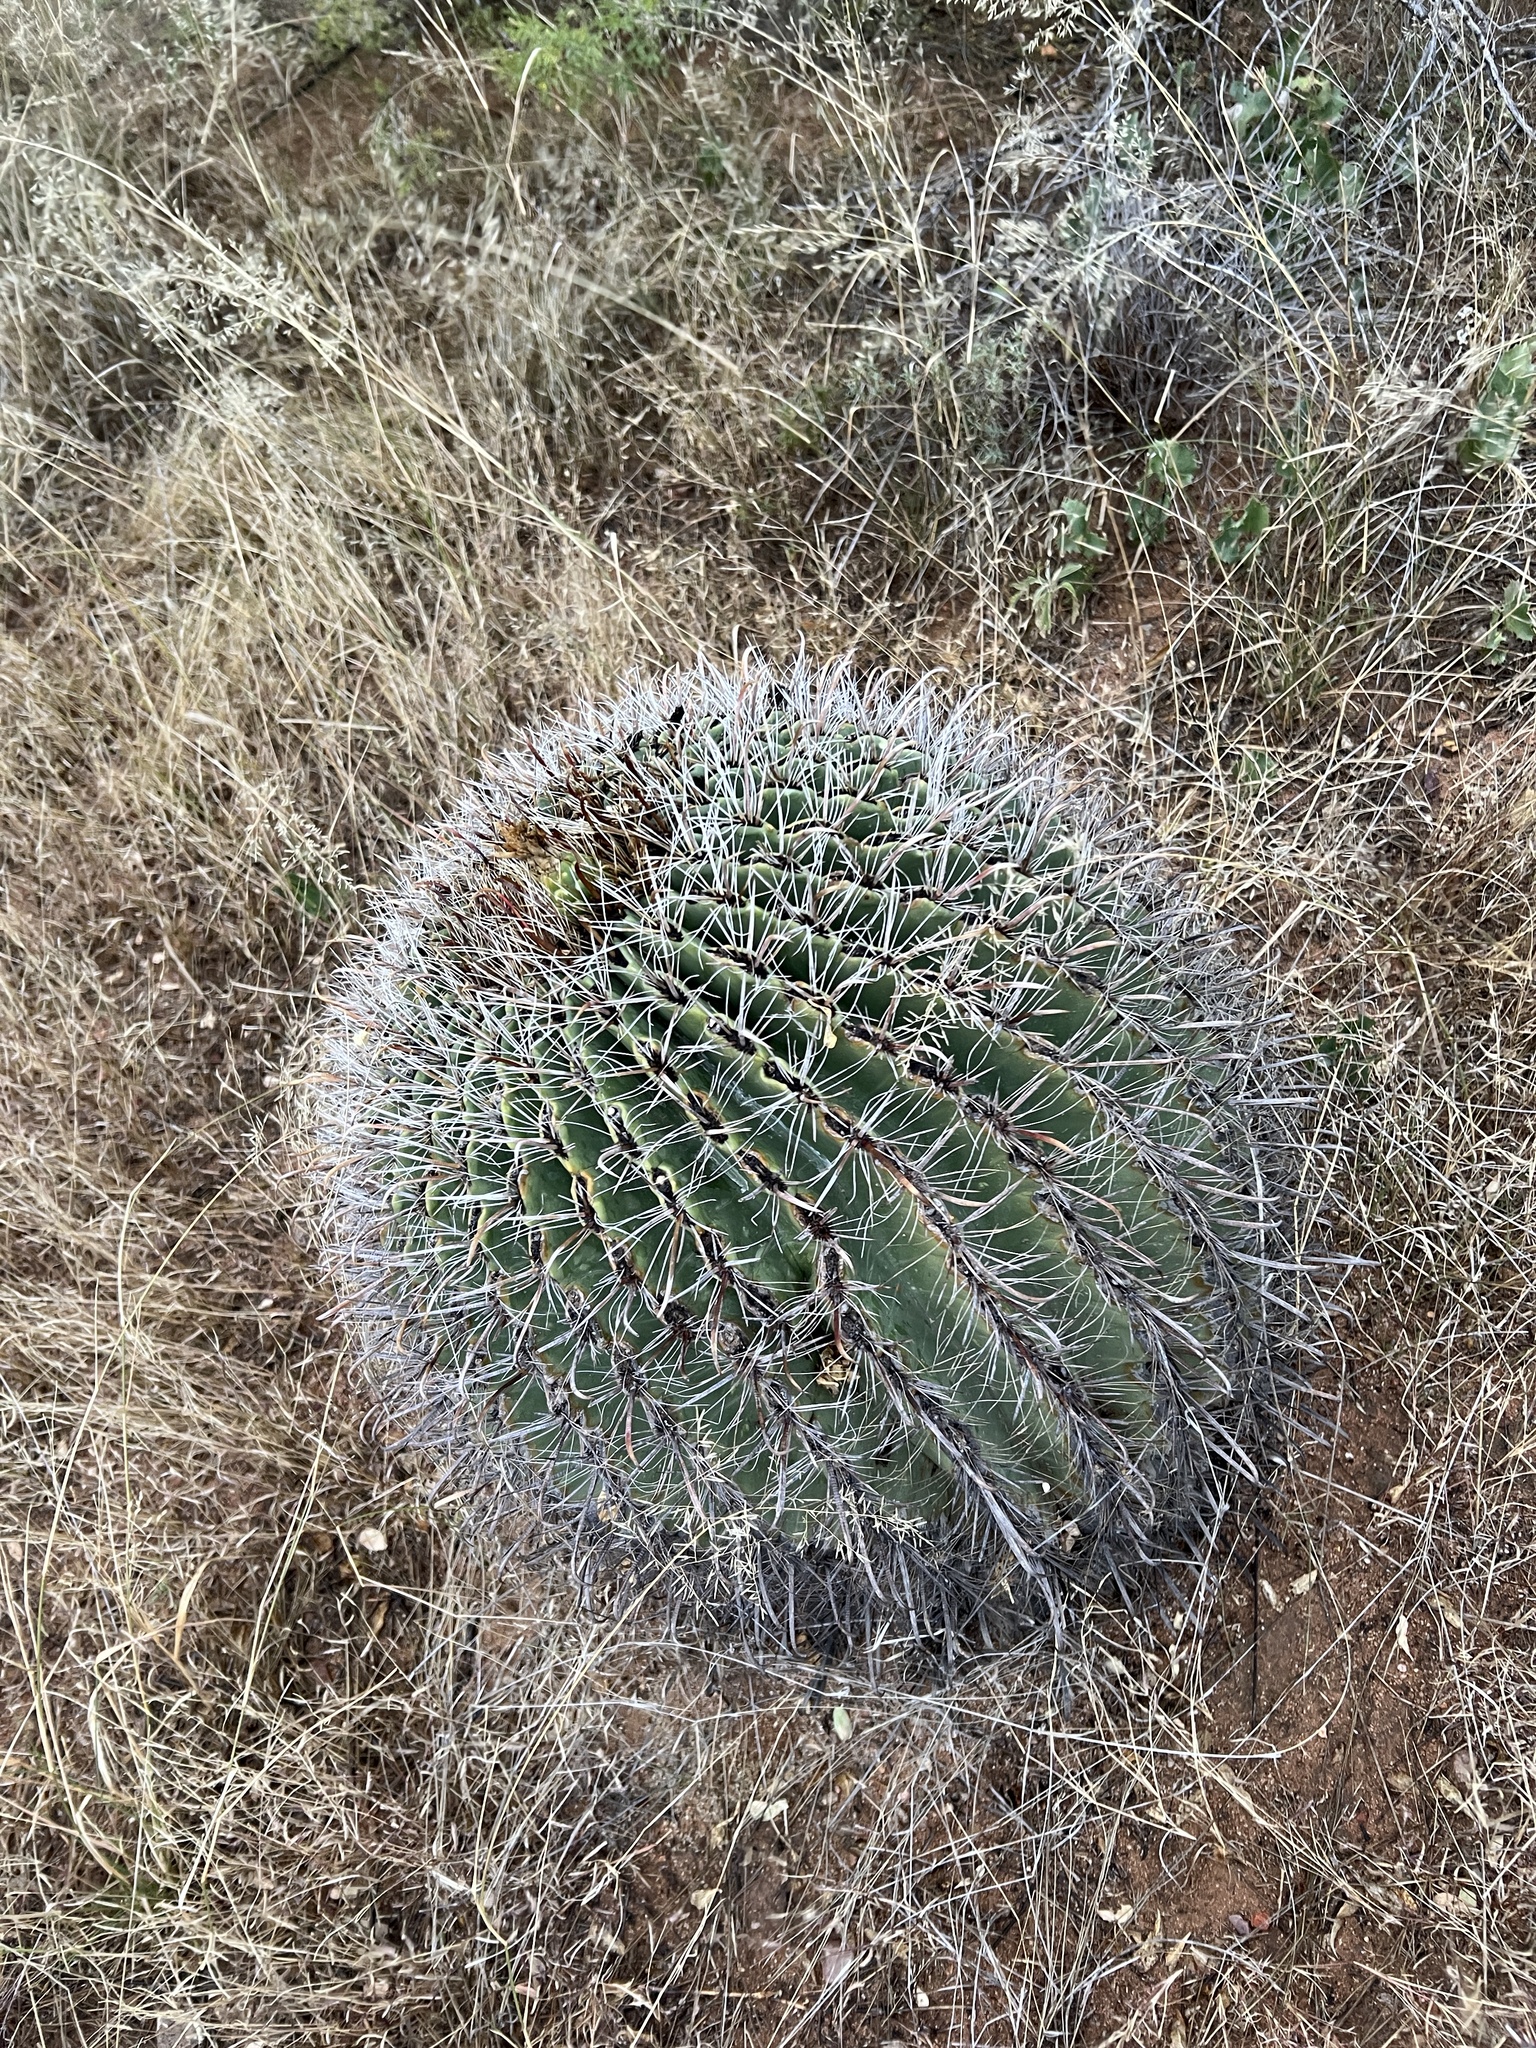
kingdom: Plantae
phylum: Tracheophyta
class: Magnoliopsida
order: Caryophyllales
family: Cactaceae
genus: Ferocactus
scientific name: Ferocactus wislizeni
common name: Candy barrel cactus
